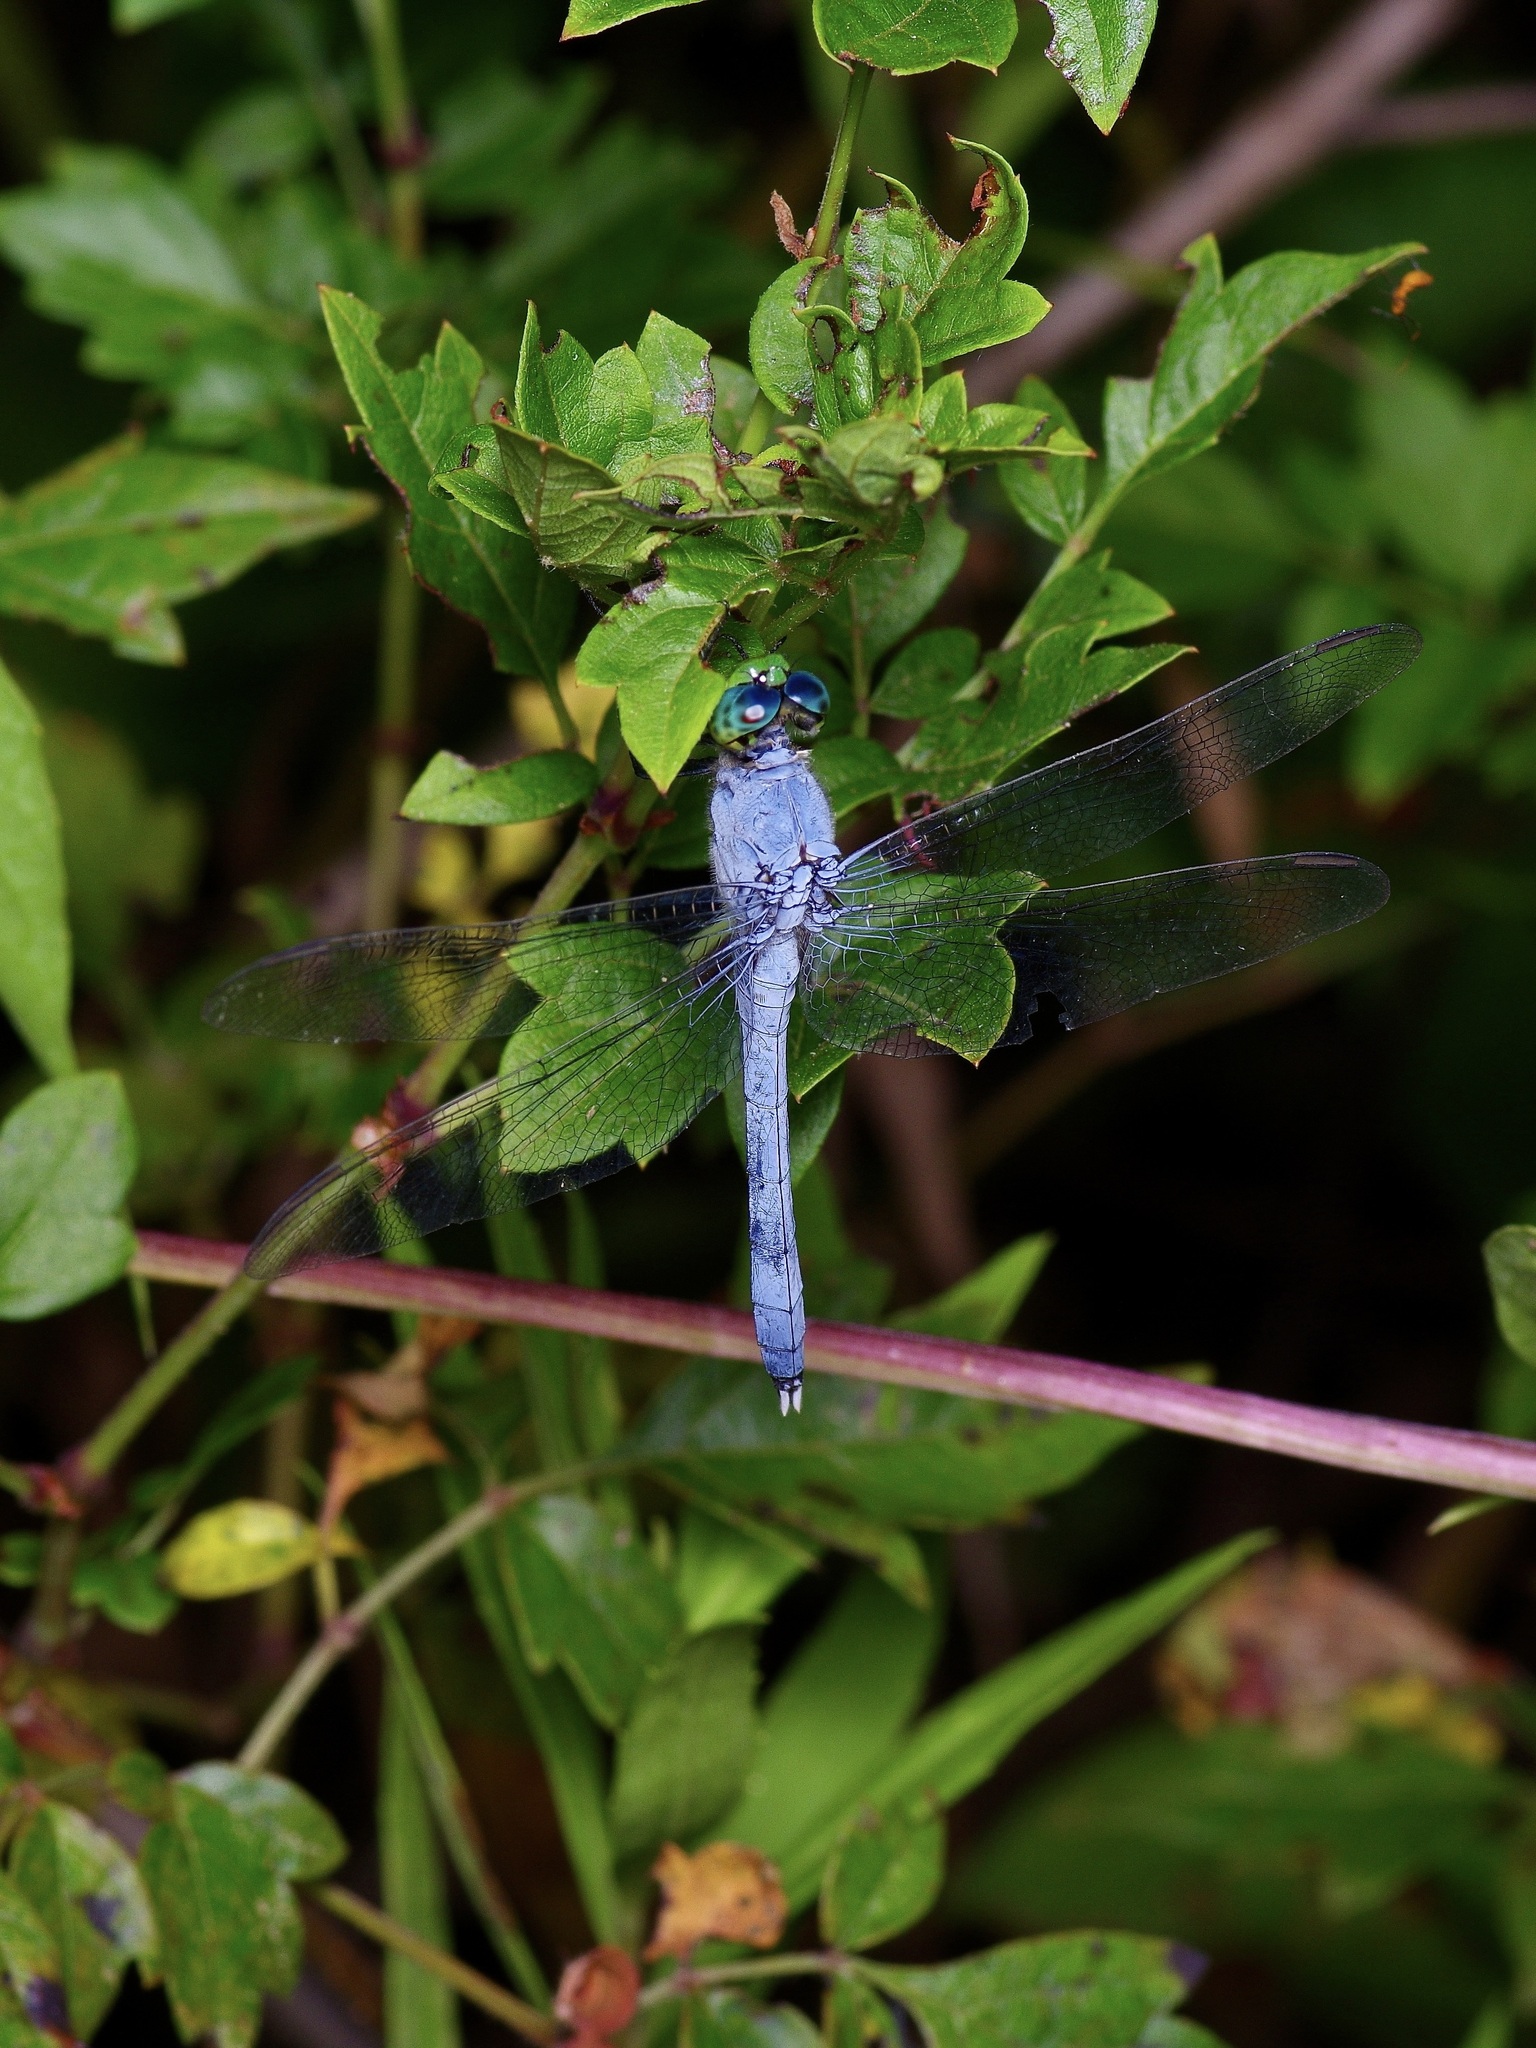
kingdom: Animalia
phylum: Arthropoda
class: Insecta
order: Odonata
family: Libellulidae
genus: Erythemis
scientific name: Erythemis simplicicollis
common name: Eastern pondhawk
